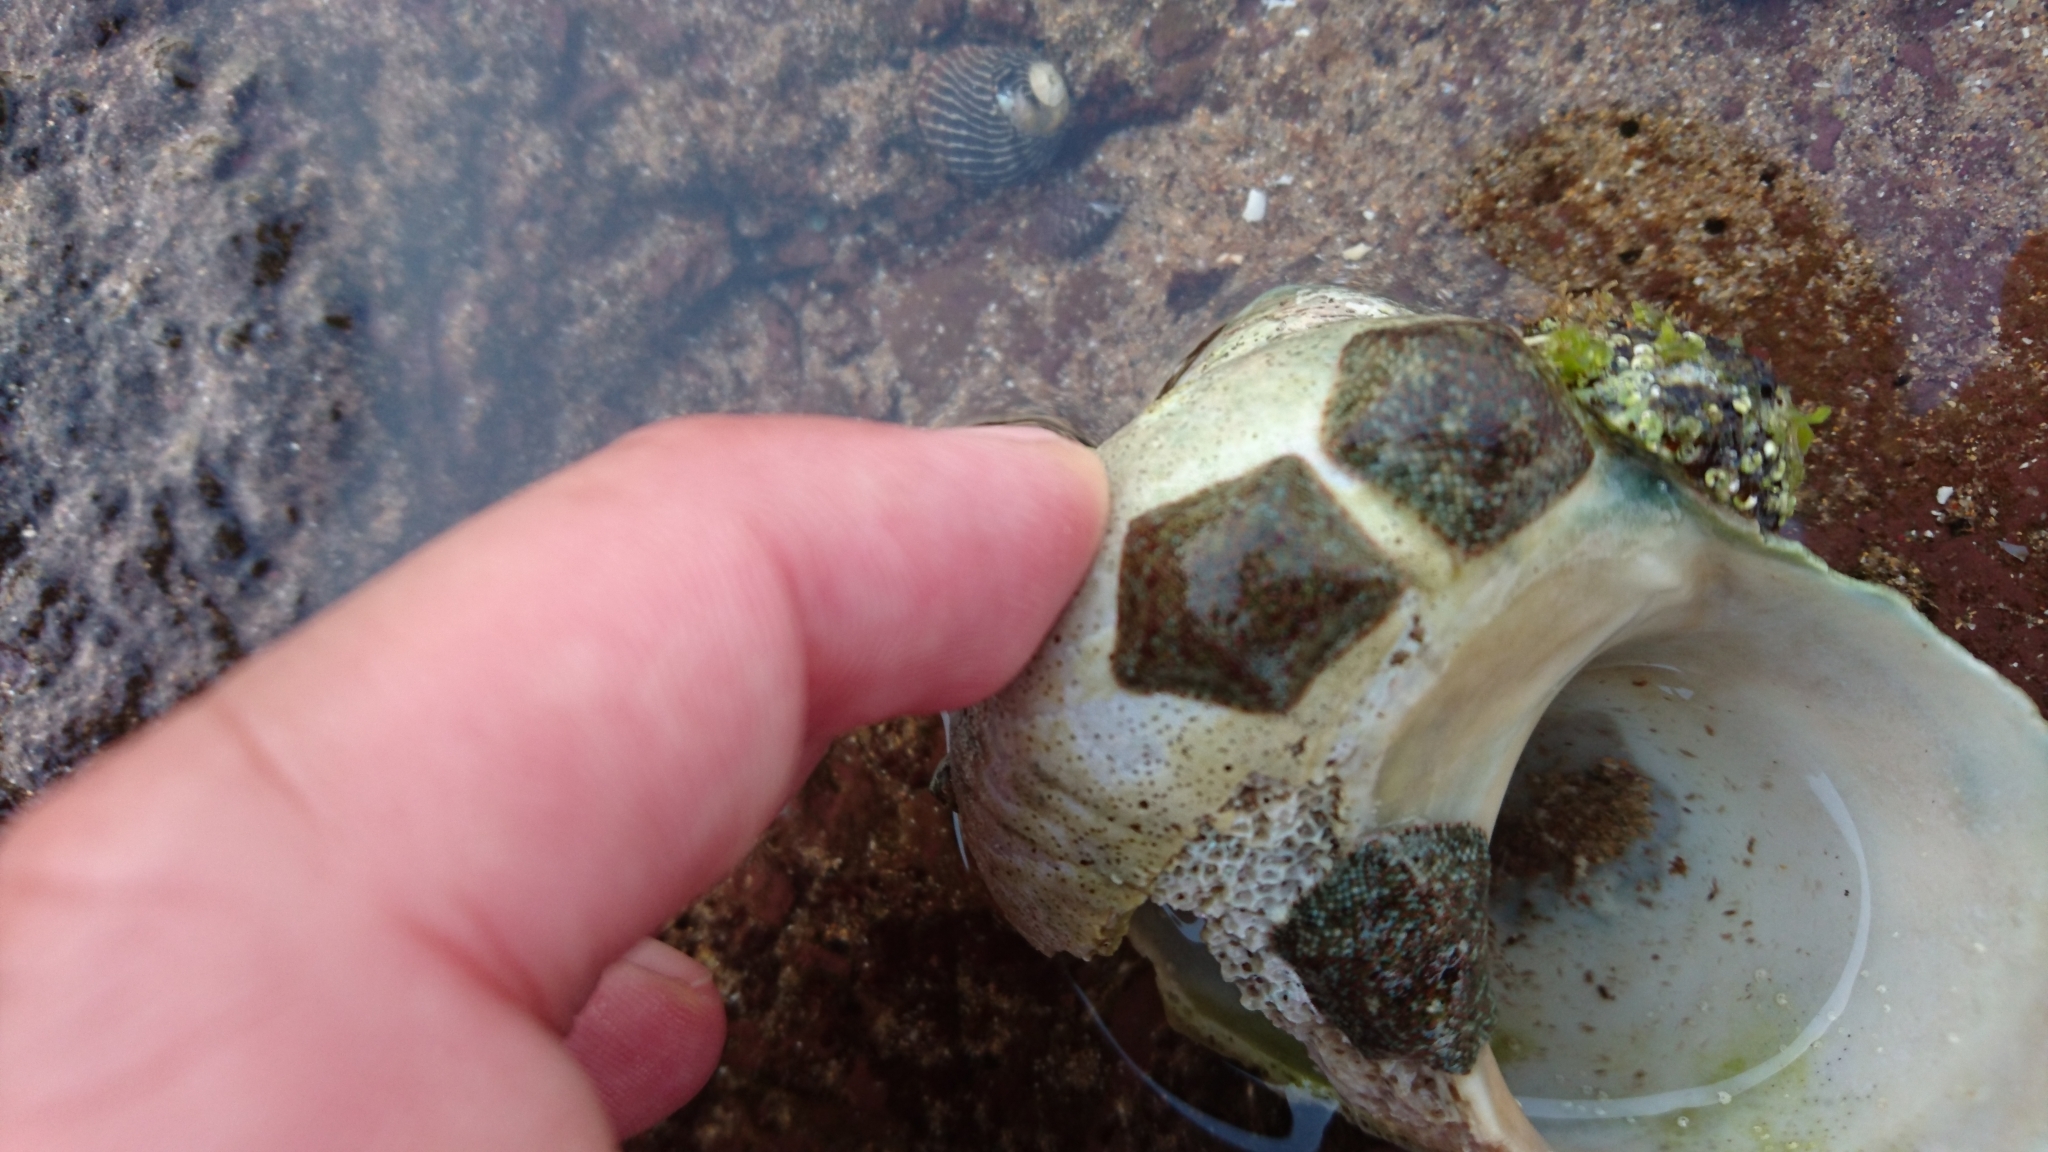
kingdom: Animalia
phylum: Echinodermata
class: Asteroidea
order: Valvatida
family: Asterinidae
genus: Parvulastra
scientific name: Parvulastra exigua
